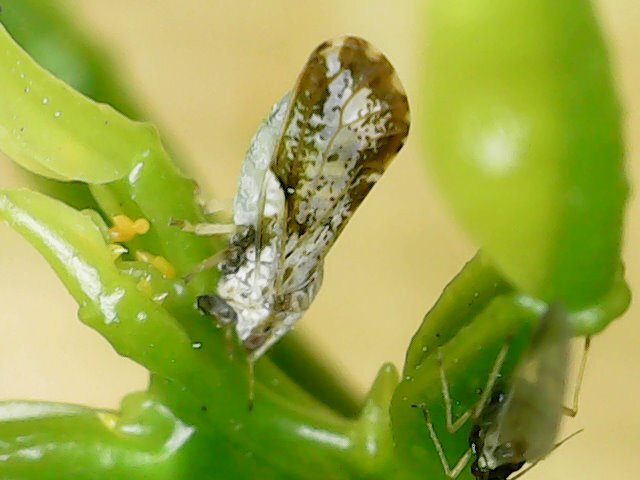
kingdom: Animalia
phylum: Arthropoda
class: Insecta
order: Hemiptera
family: Liviidae
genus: Diaphorina
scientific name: Diaphorina citri
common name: Asian citrus psyllid
